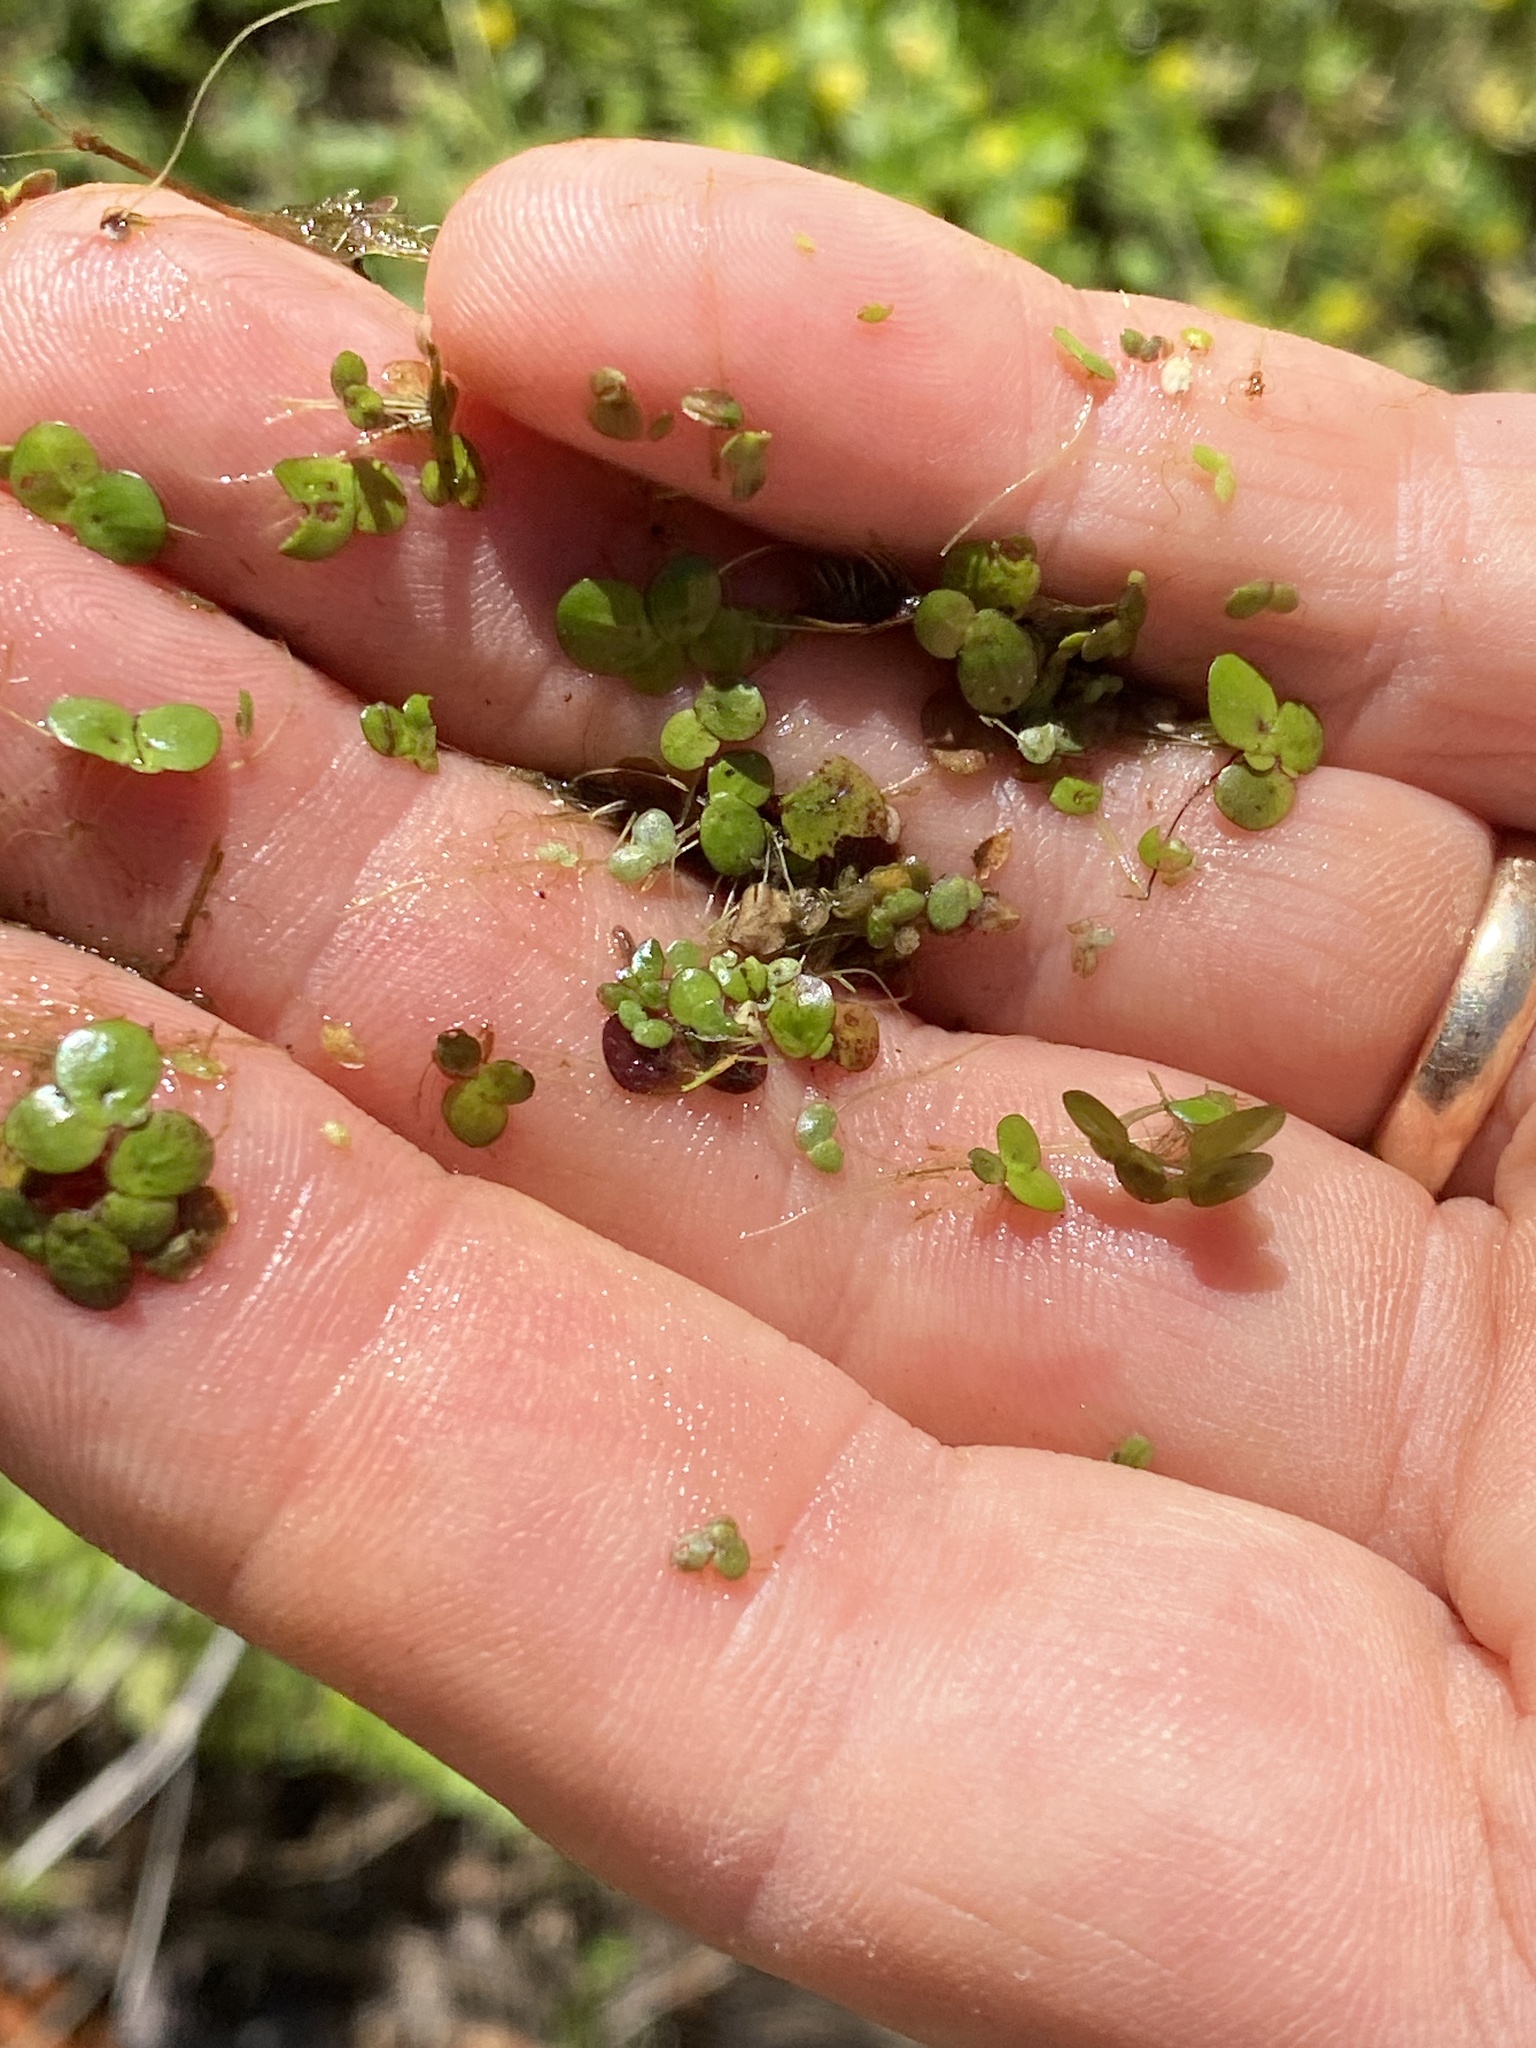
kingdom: Plantae
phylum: Tracheophyta
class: Liliopsida
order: Alismatales
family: Araceae
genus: Lemna
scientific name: Lemna minor
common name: Common duckweed
